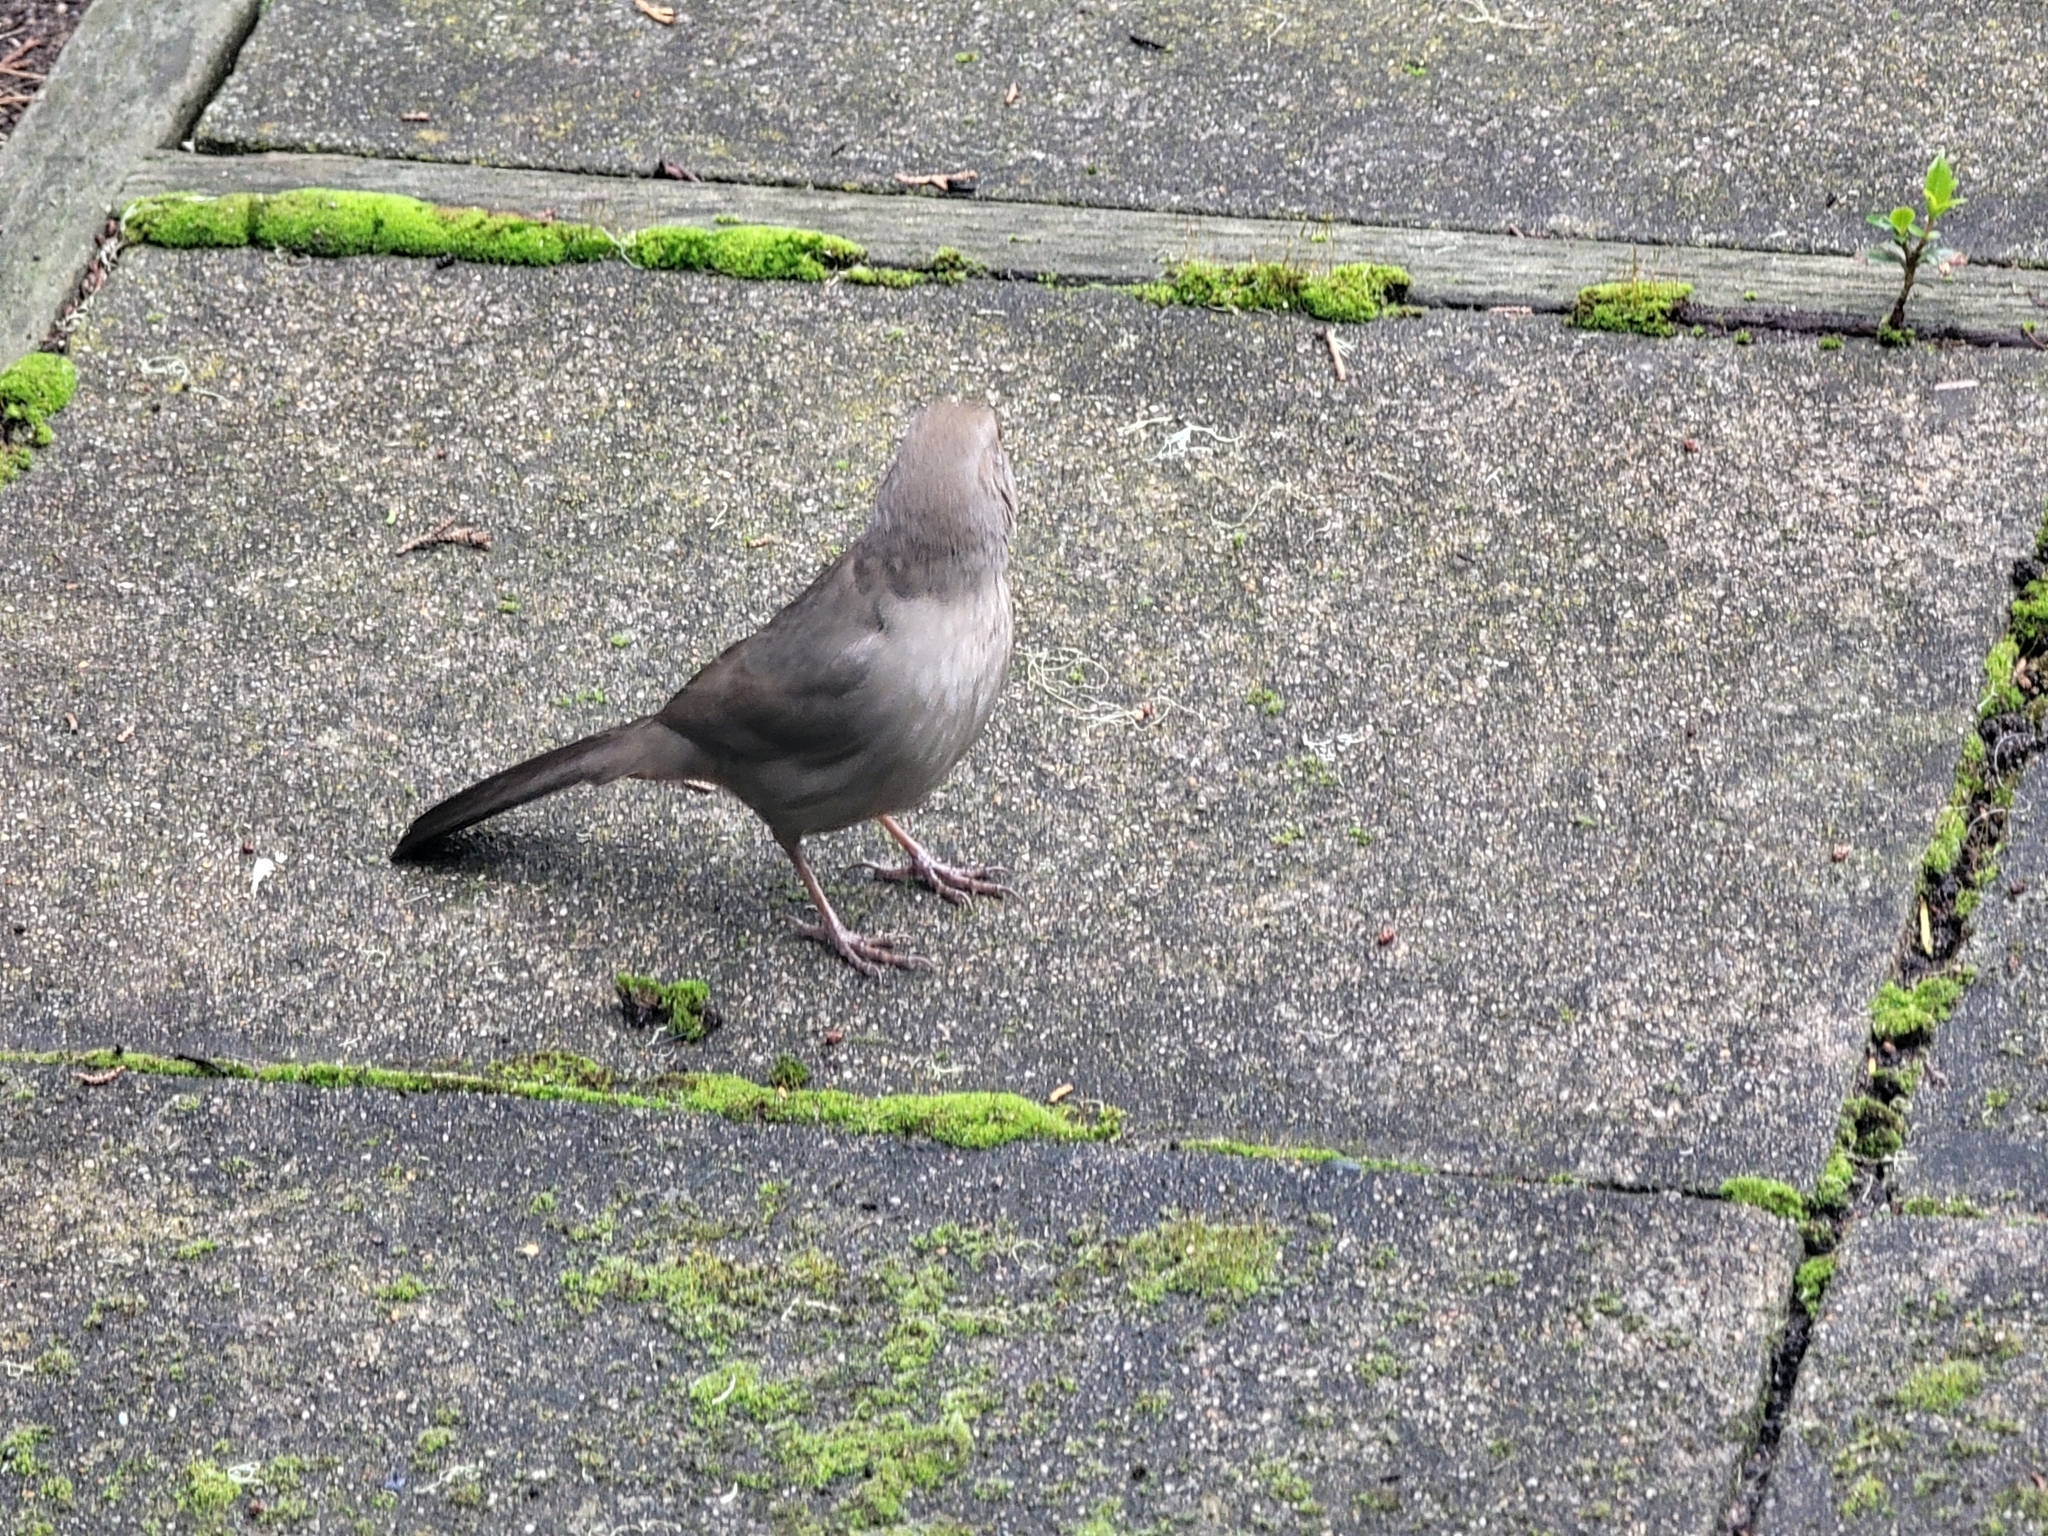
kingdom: Animalia
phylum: Chordata
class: Aves
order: Passeriformes
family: Passerellidae
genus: Melozone
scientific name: Melozone crissalis
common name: California towhee
